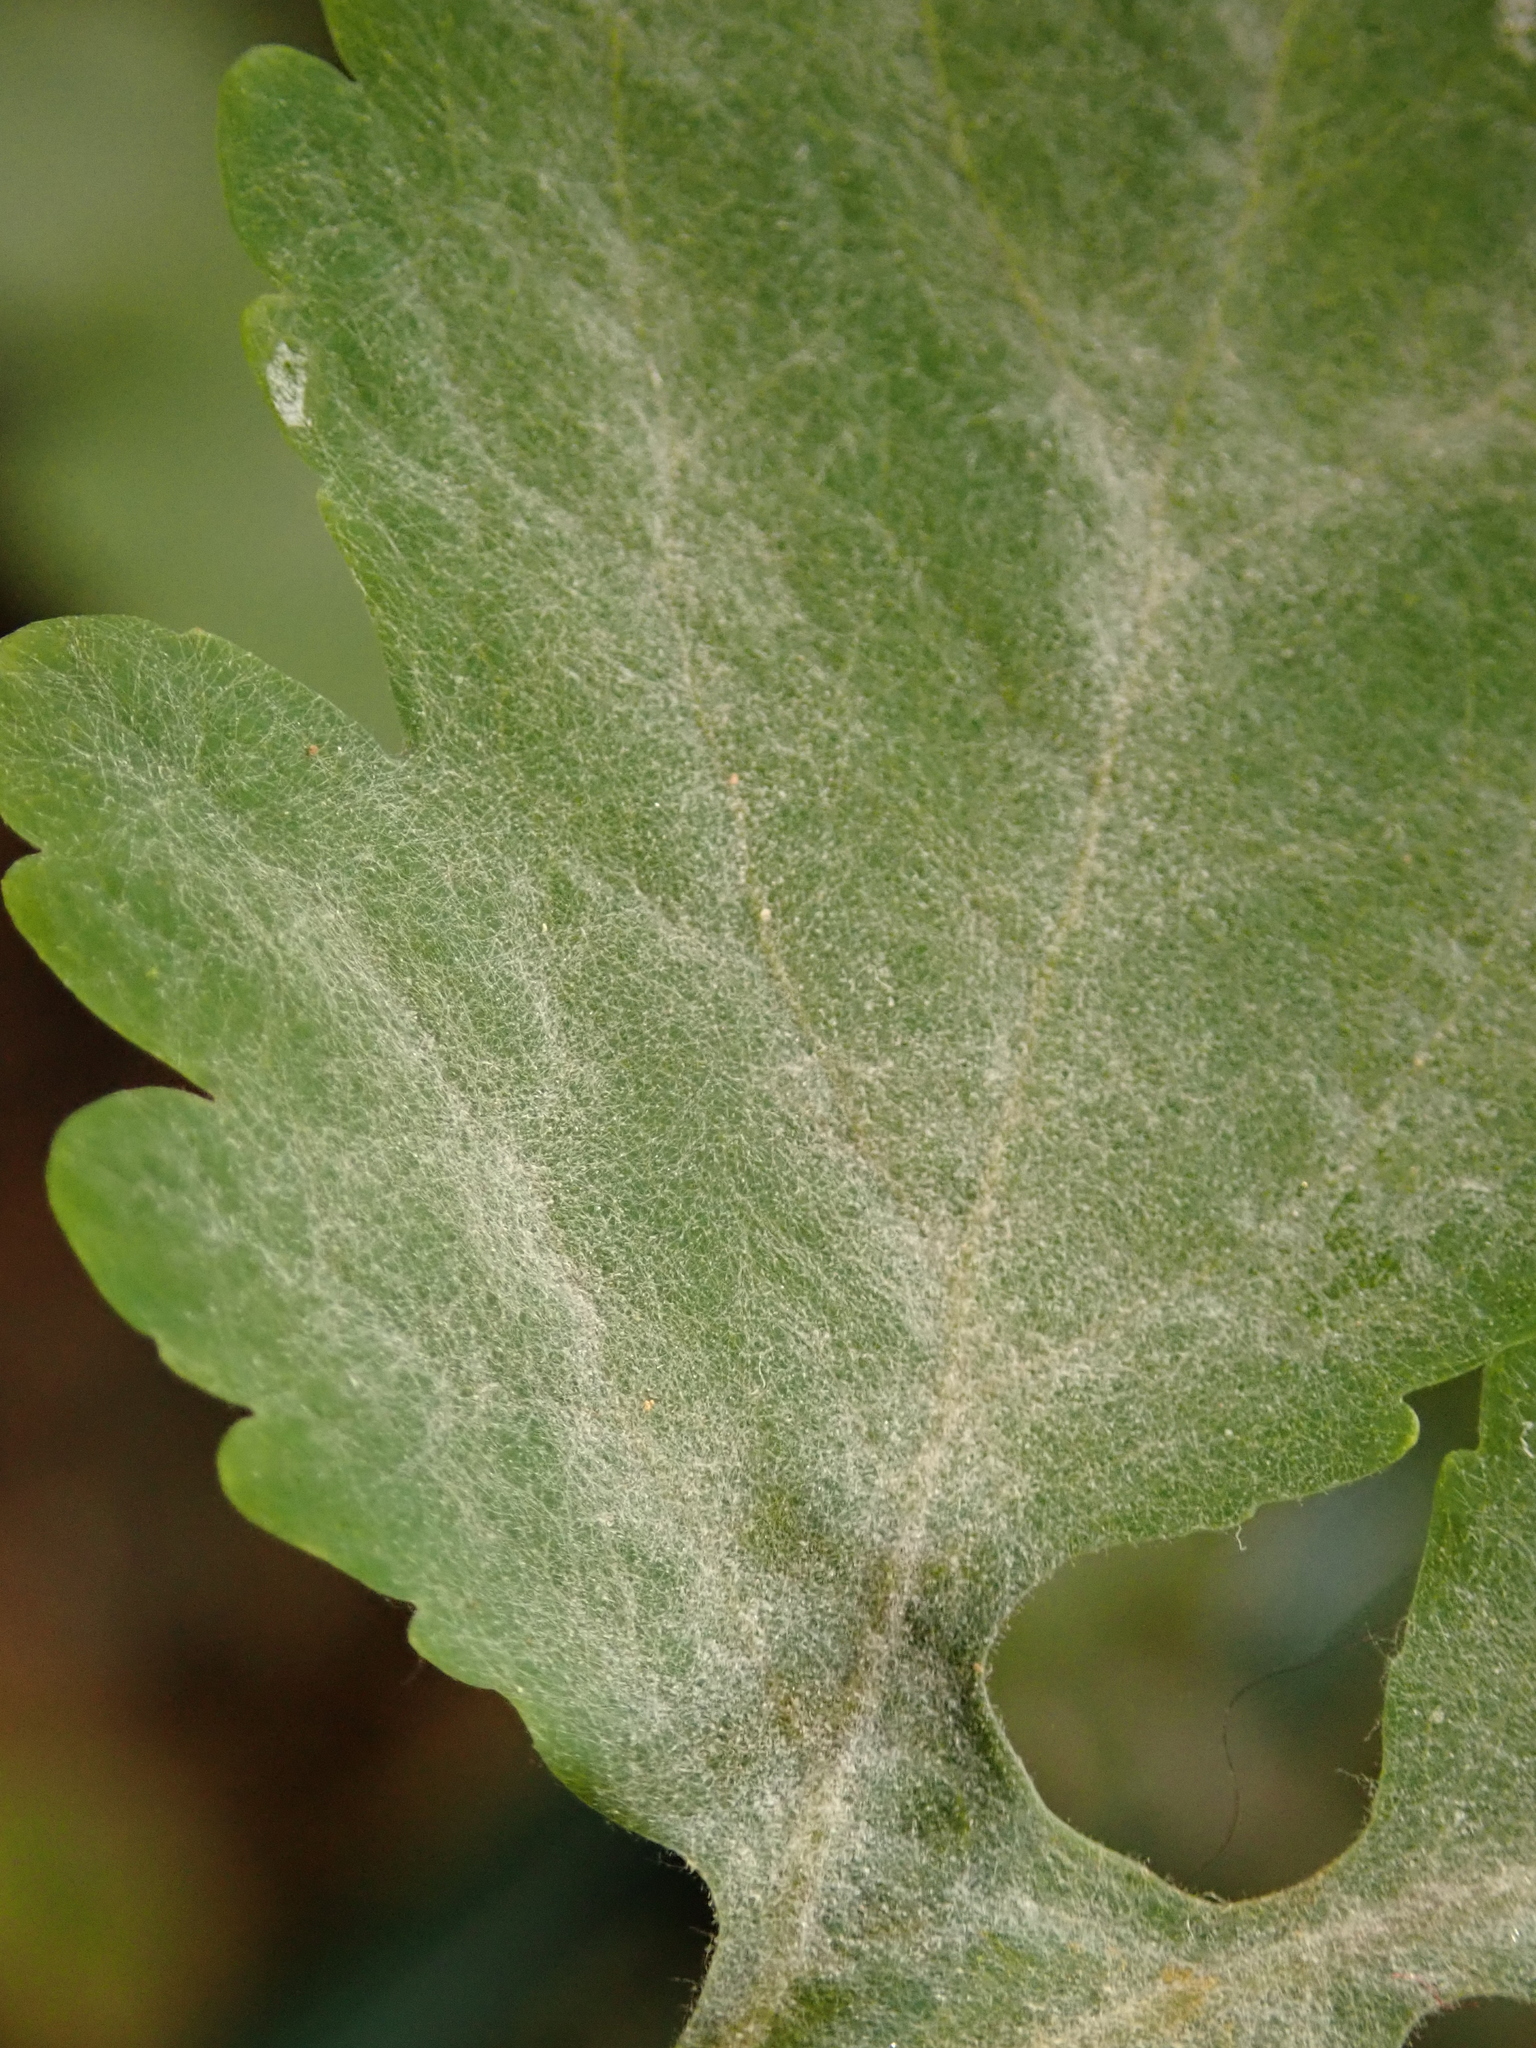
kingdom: Fungi
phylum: Ascomycota
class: Leotiomycetes
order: Helotiales
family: Erysiphaceae
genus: Erysiphe
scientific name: Erysiphe macleayae
